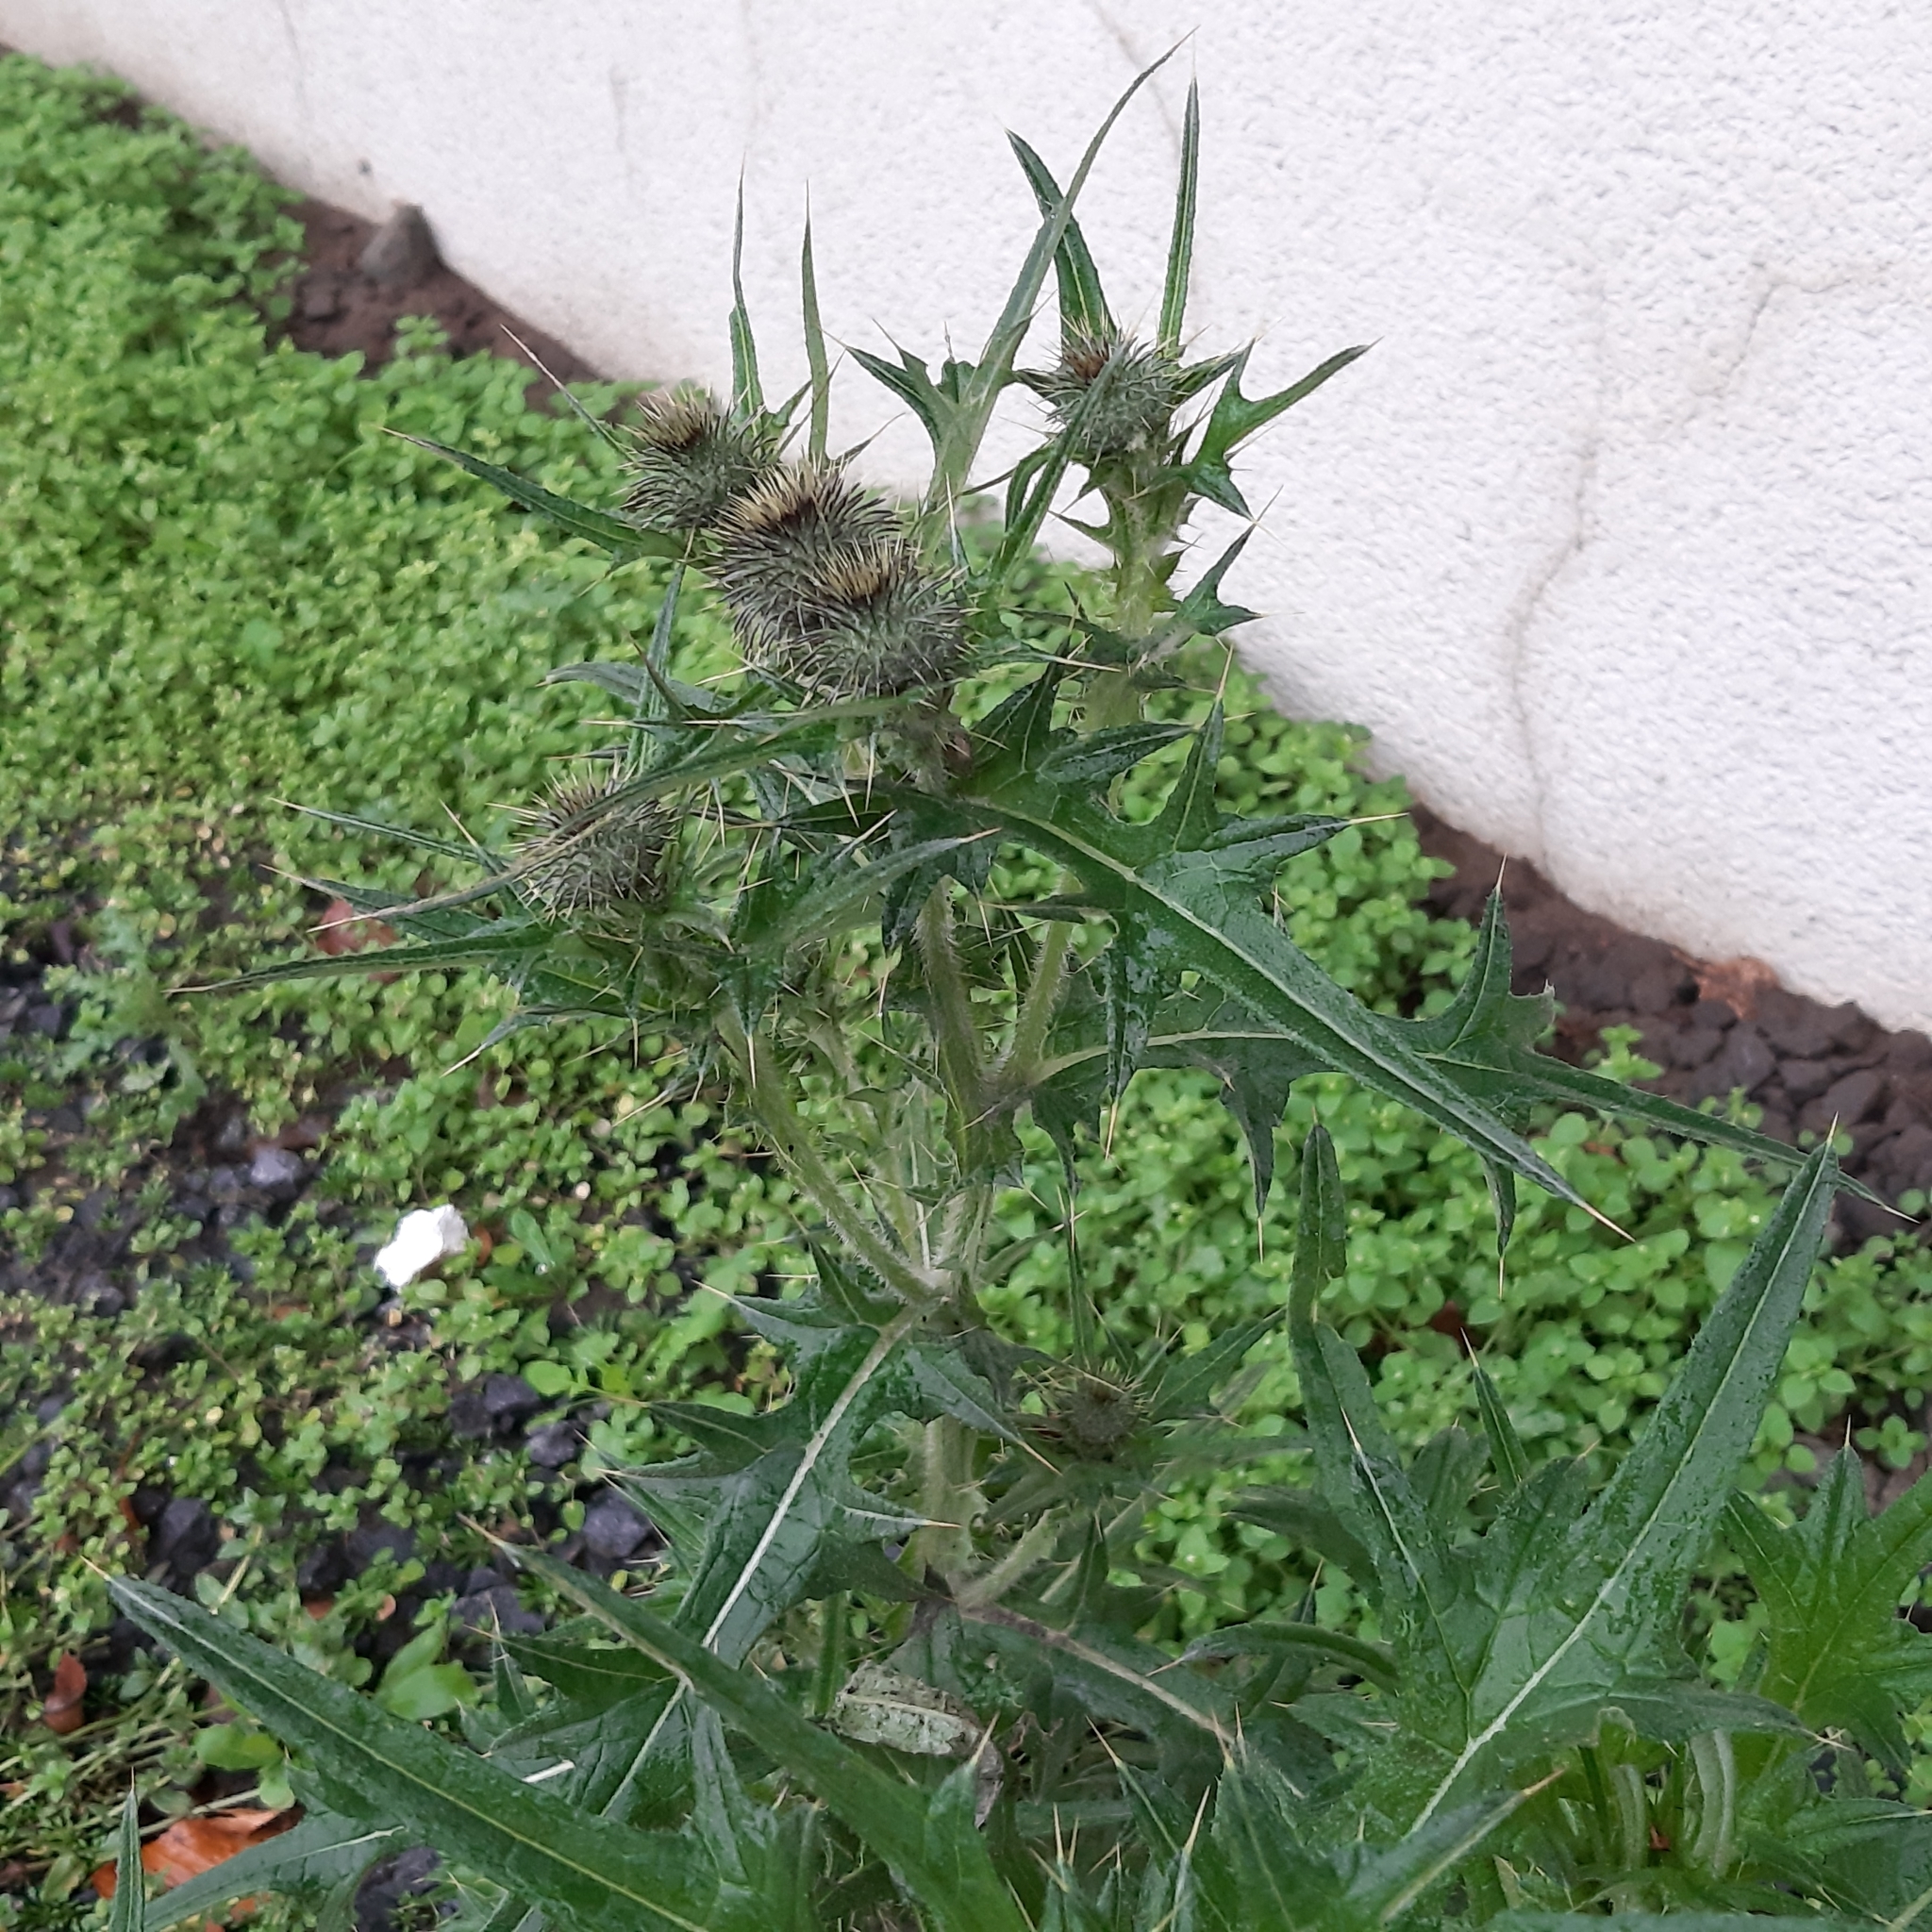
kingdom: Plantae
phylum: Tracheophyta
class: Magnoliopsida
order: Asterales
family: Asteraceae
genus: Cirsium
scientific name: Cirsium vulgare
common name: Bull thistle
